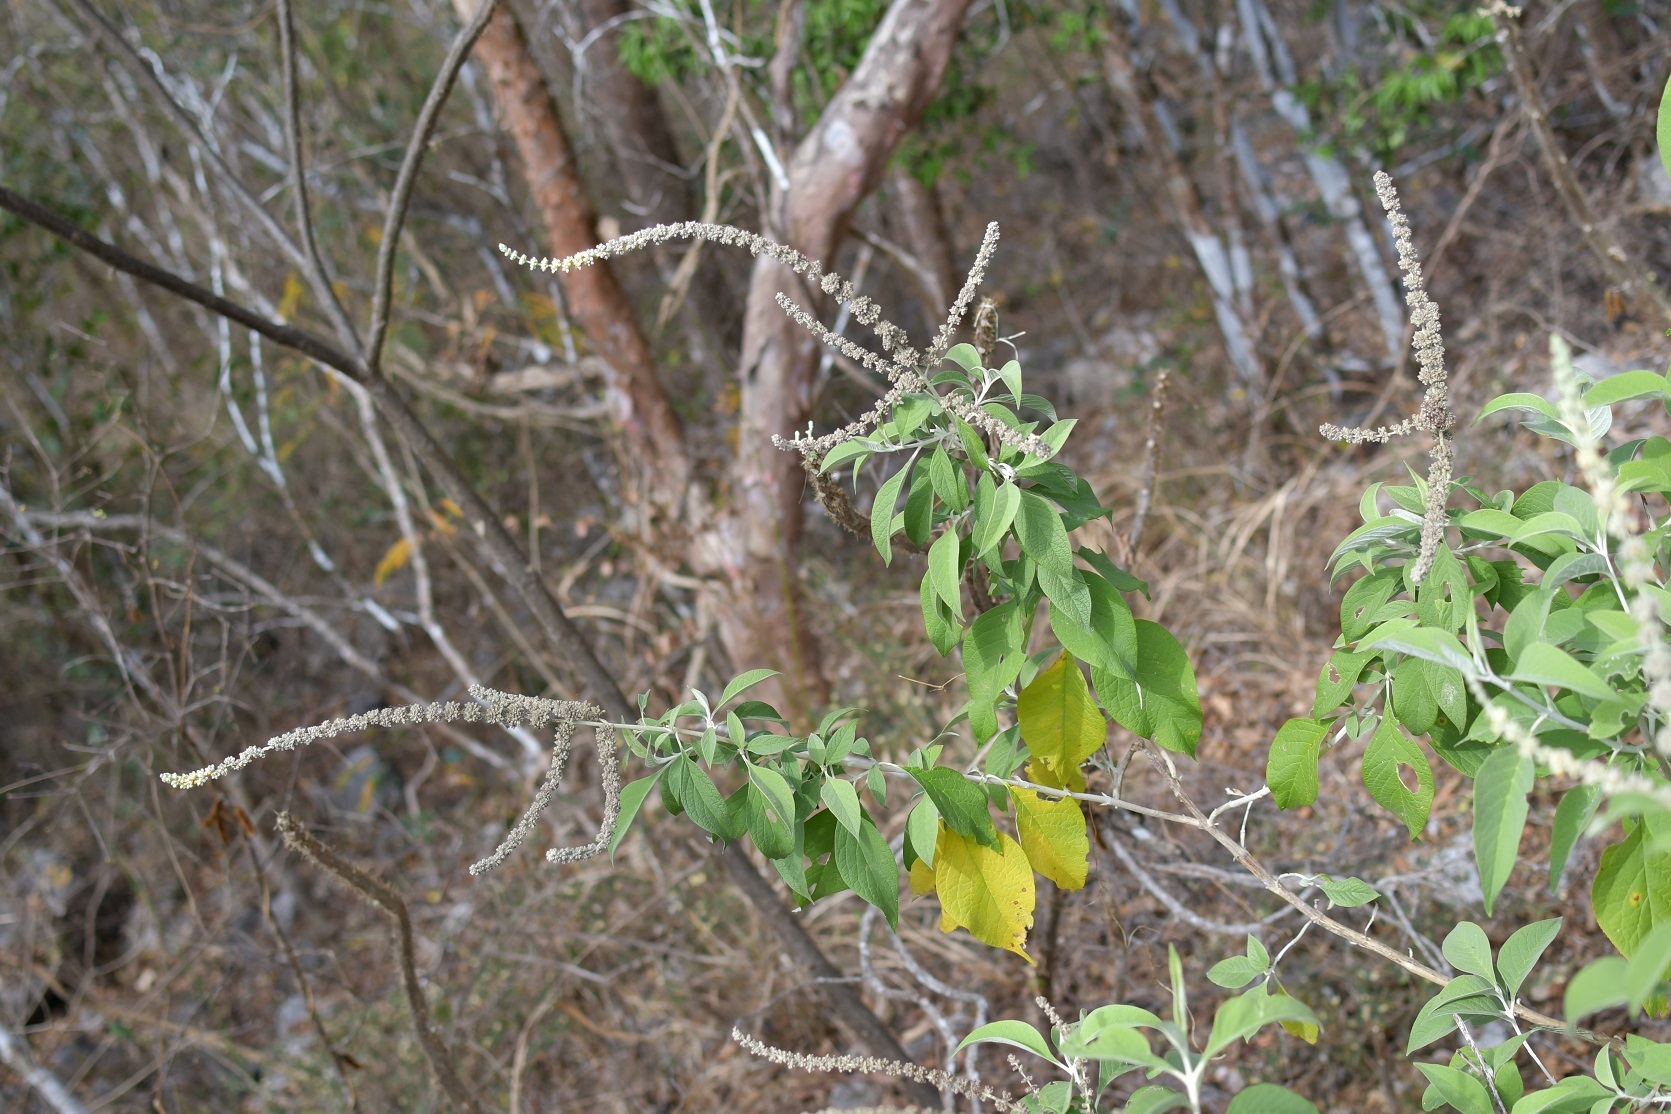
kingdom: Plantae
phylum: Tracheophyta
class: Magnoliopsida
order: Lamiales
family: Scrophulariaceae
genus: Buddleja
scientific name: Buddleja americana
